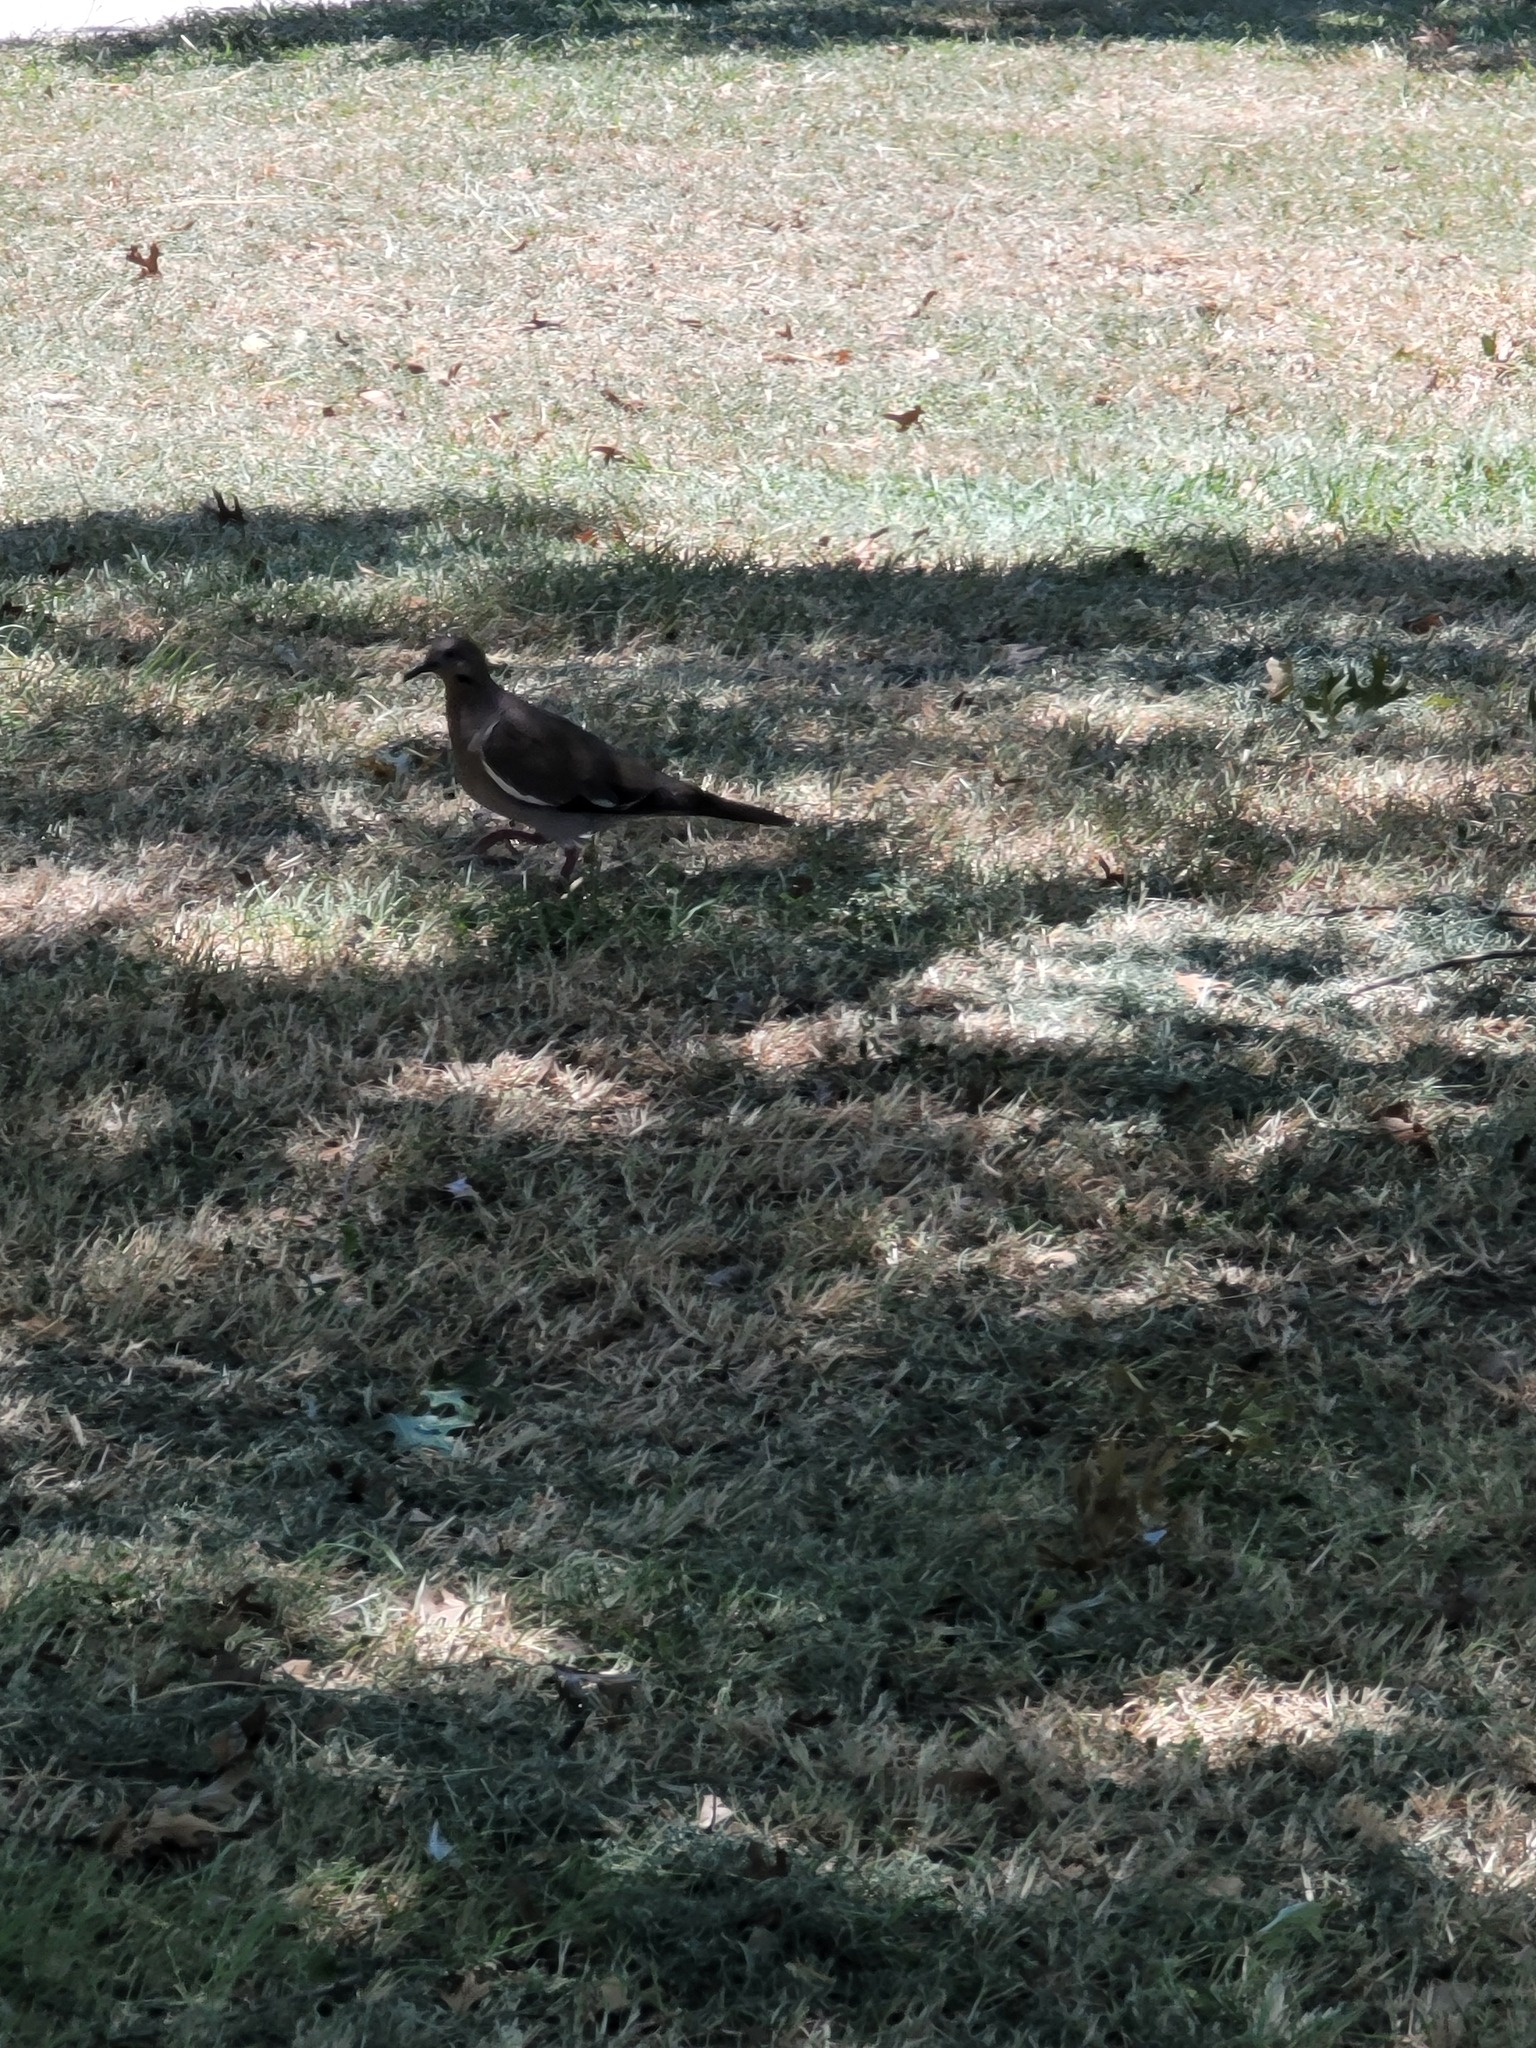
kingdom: Animalia
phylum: Chordata
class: Aves
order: Columbiformes
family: Columbidae
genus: Zenaida
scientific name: Zenaida asiatica
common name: White-winged dove
